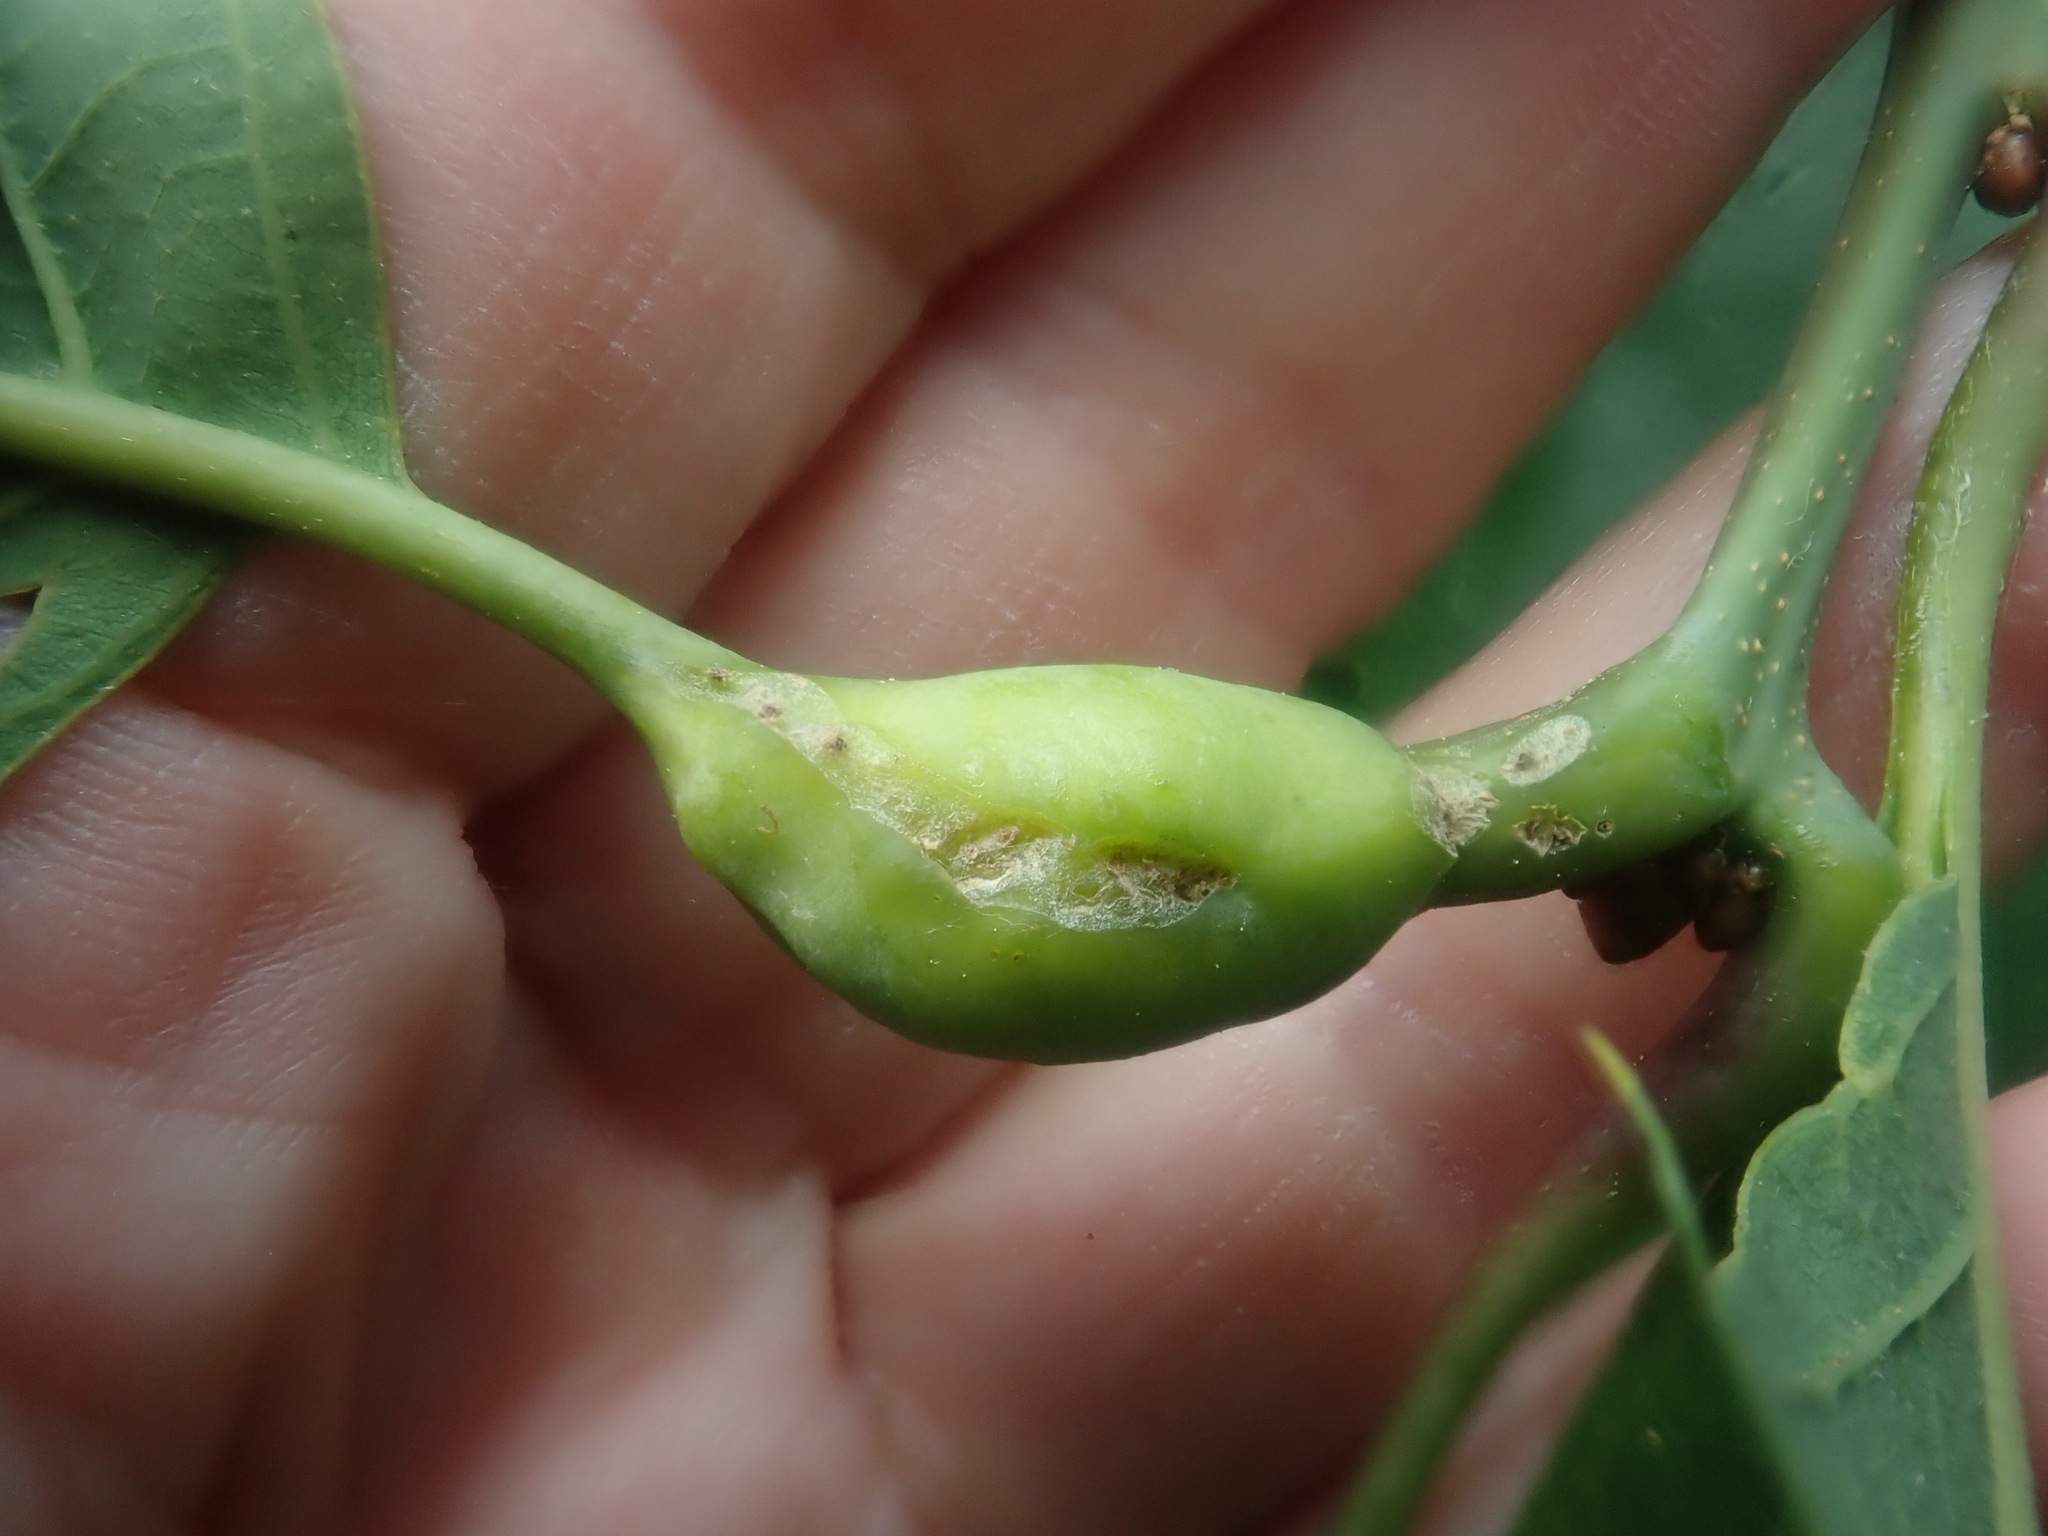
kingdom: Animalia
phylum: Arthropoda
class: Insecta
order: Hymenoptera
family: Cynipidae
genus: Melikaiella
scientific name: Melikaiella tumifica
